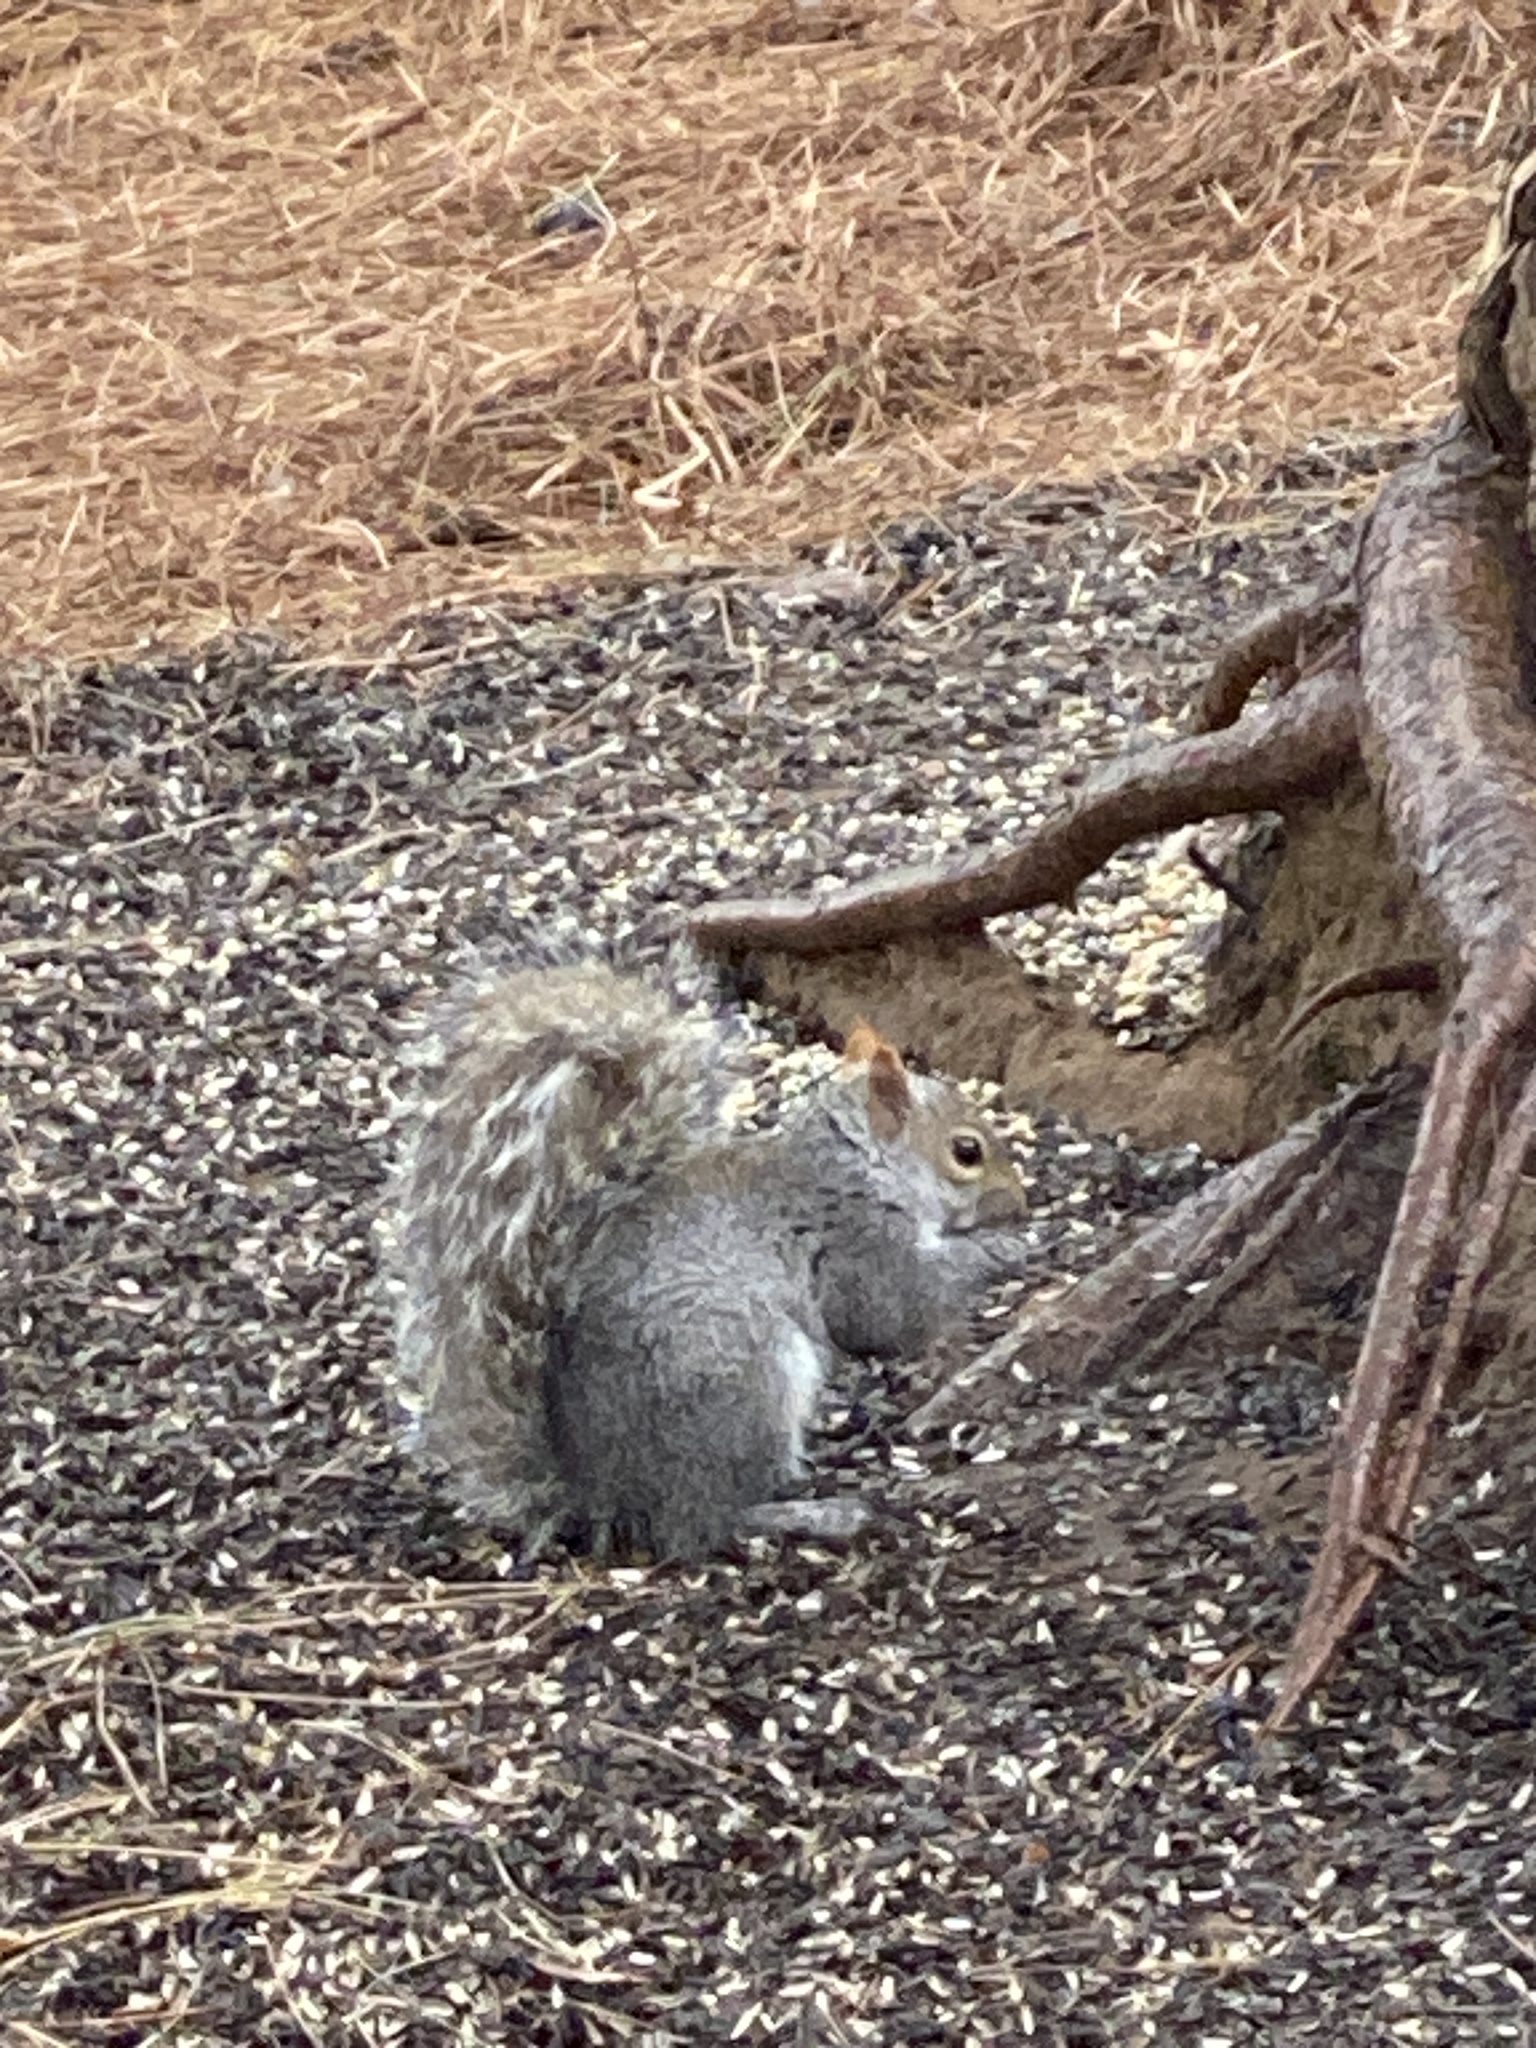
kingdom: Animalia
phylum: Chordata
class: Mammalia
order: Rodentia
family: Sciuridae
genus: Sciurus
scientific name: Sciurus carolinensis
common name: Eastern gray squirrel
